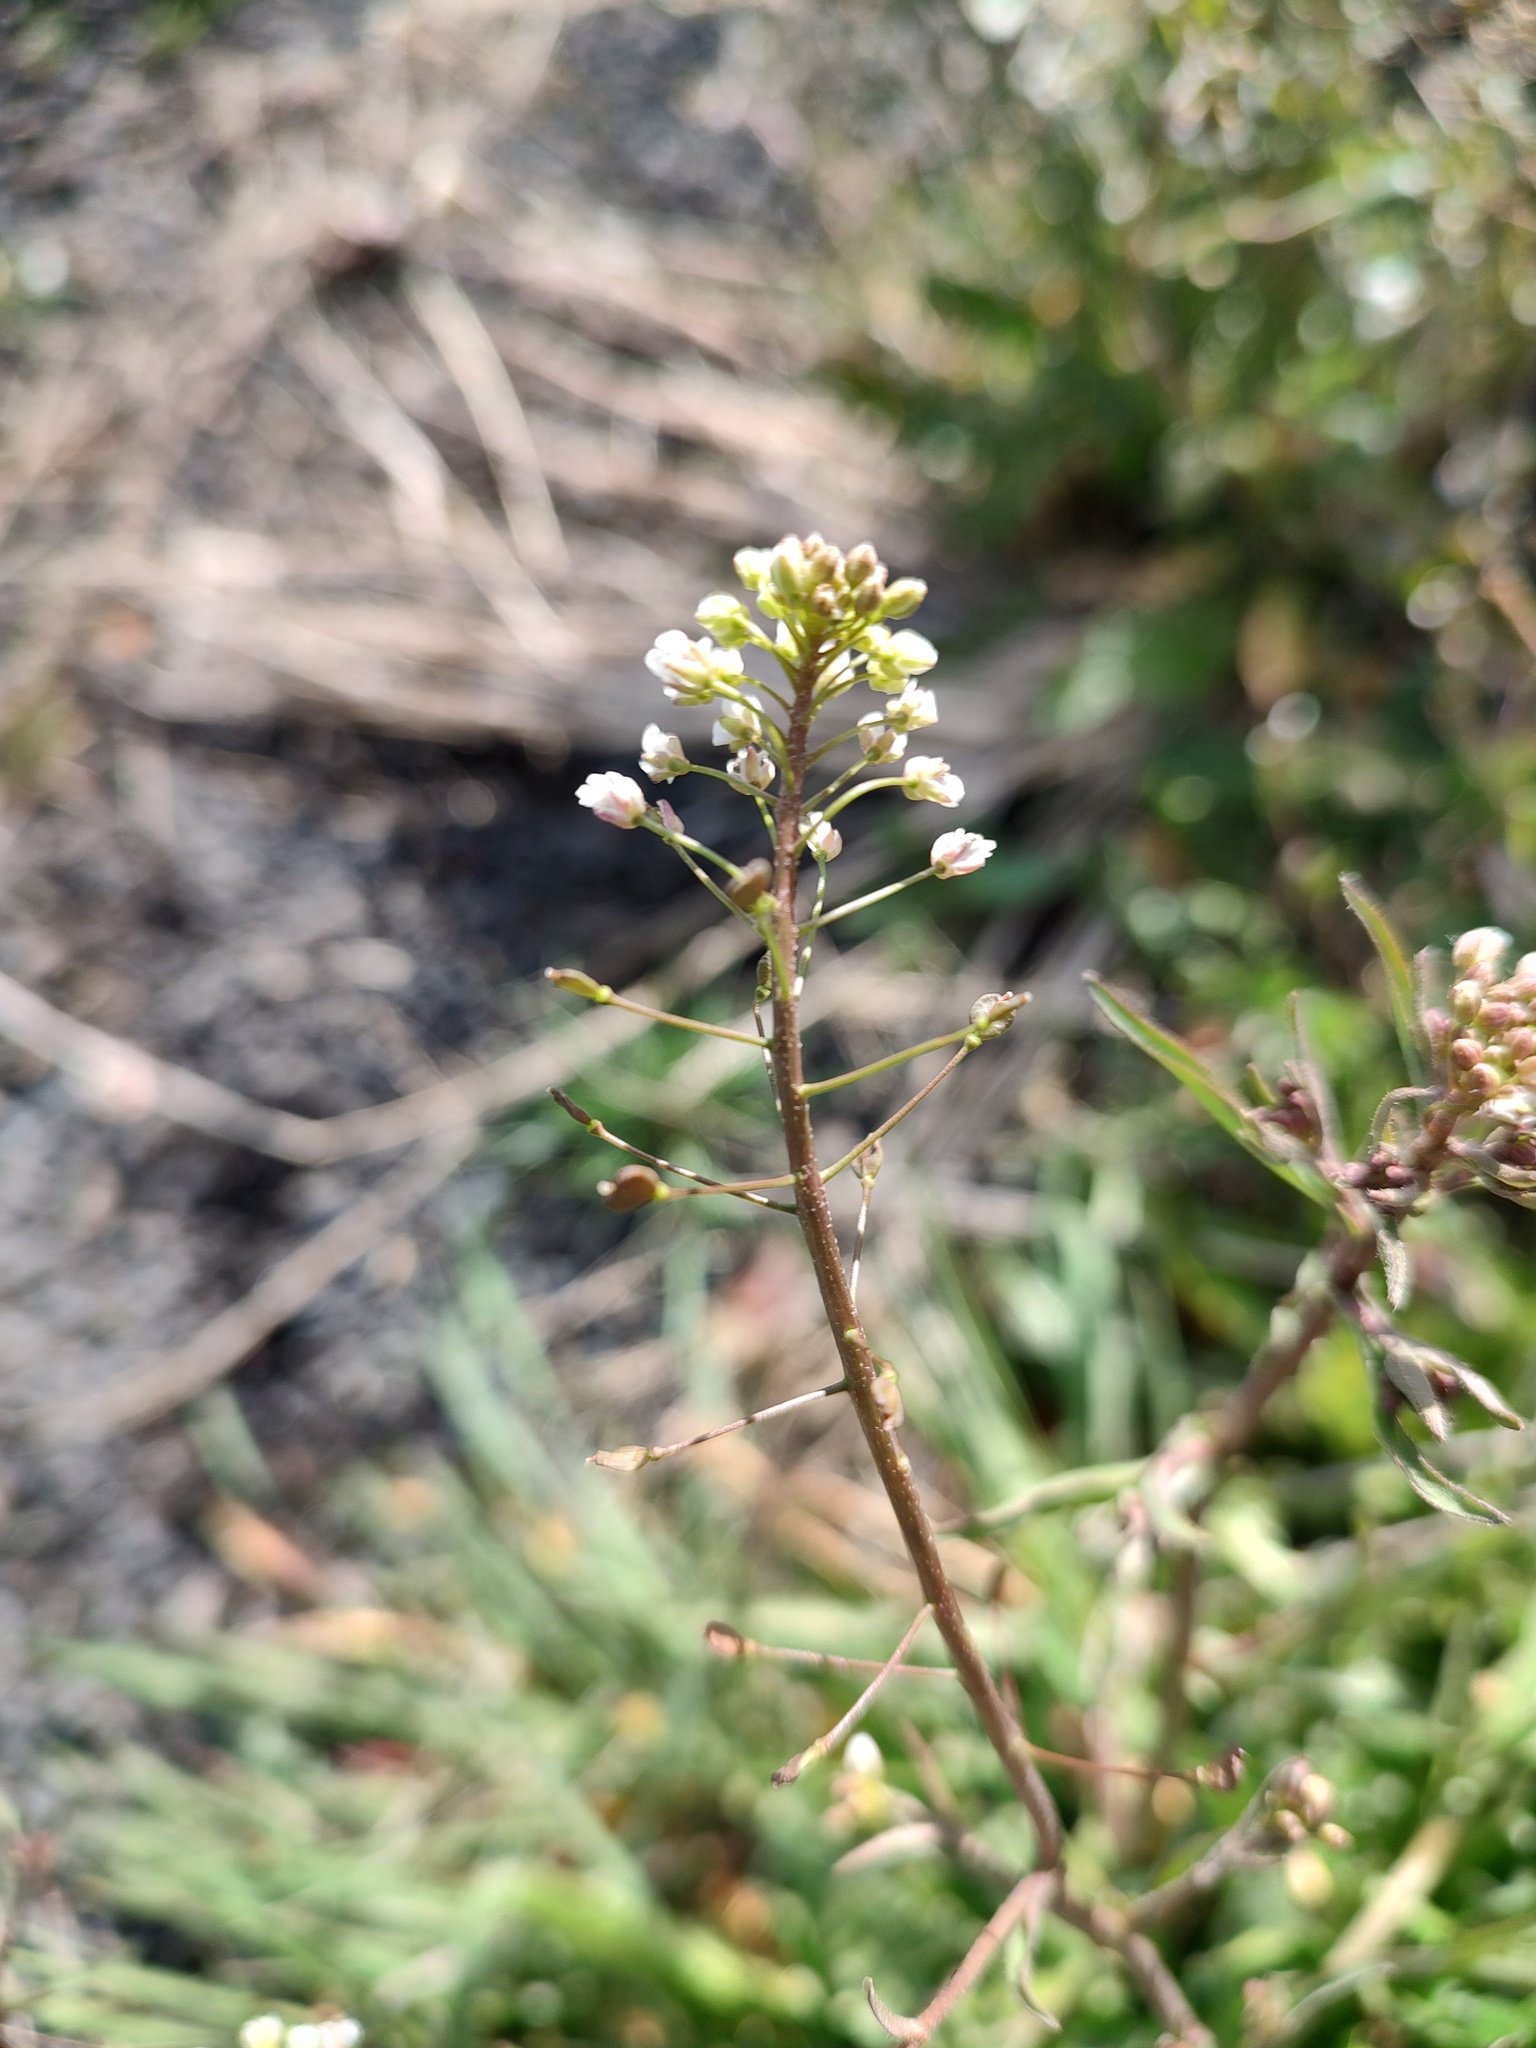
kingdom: Plantae
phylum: Tracheophyta
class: Magnoliopsida
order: Brassicales
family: Brassicaceae
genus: Capsella
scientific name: Capsella bursa-pastoris
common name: Shepherd's purse
